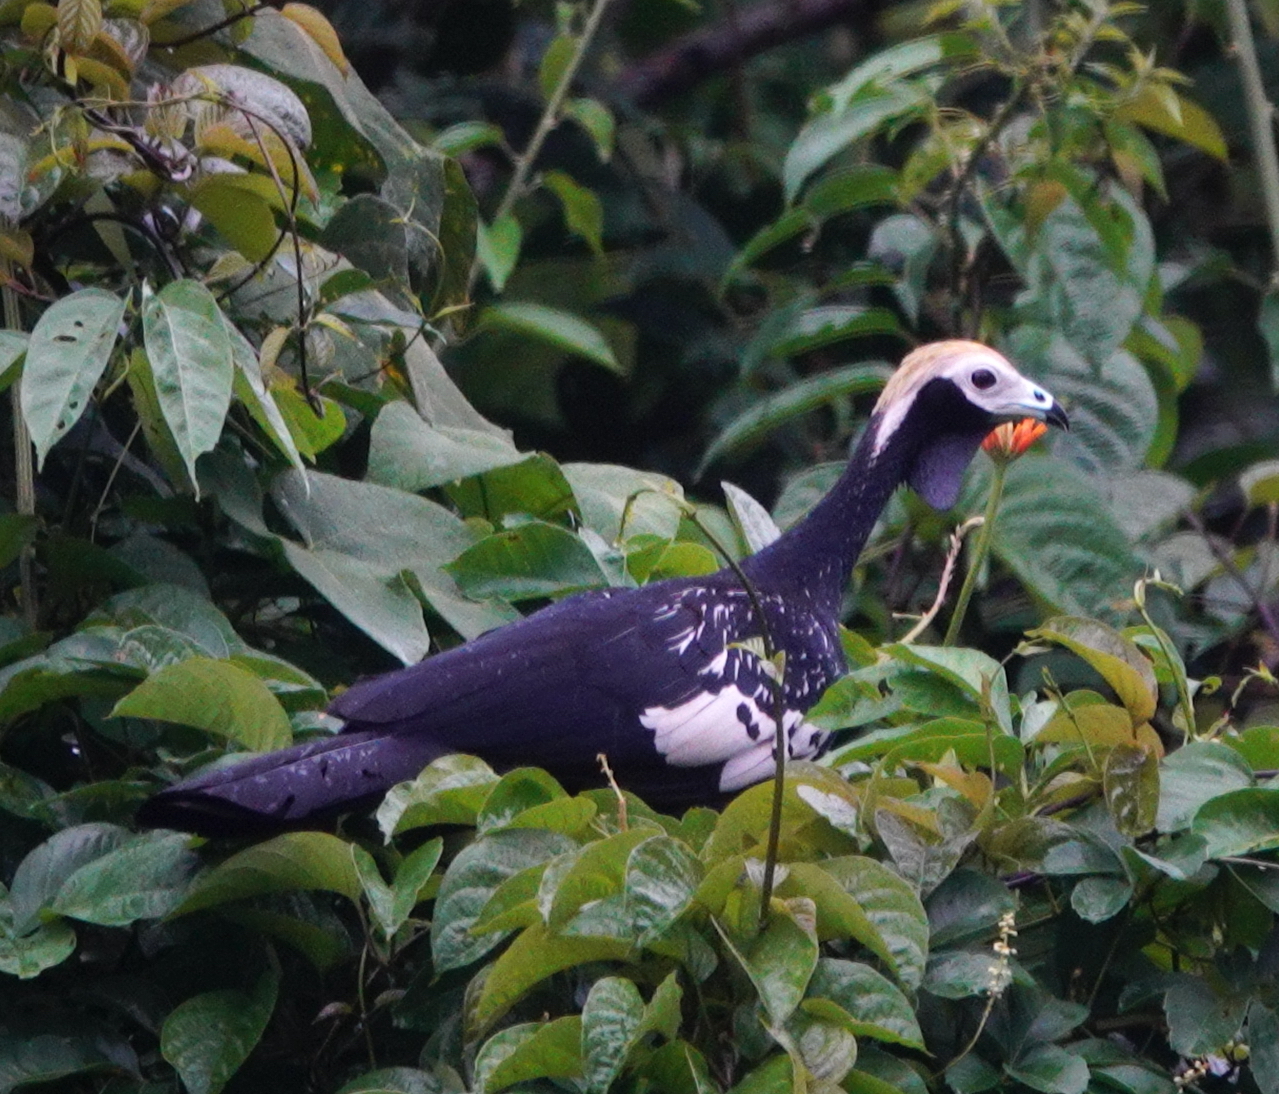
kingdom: Animalia
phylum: Chordata
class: Aves
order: Galliformes
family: Cracidae
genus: Pipile
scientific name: Pipile cumanensis
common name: Blue-throated piping-guan
